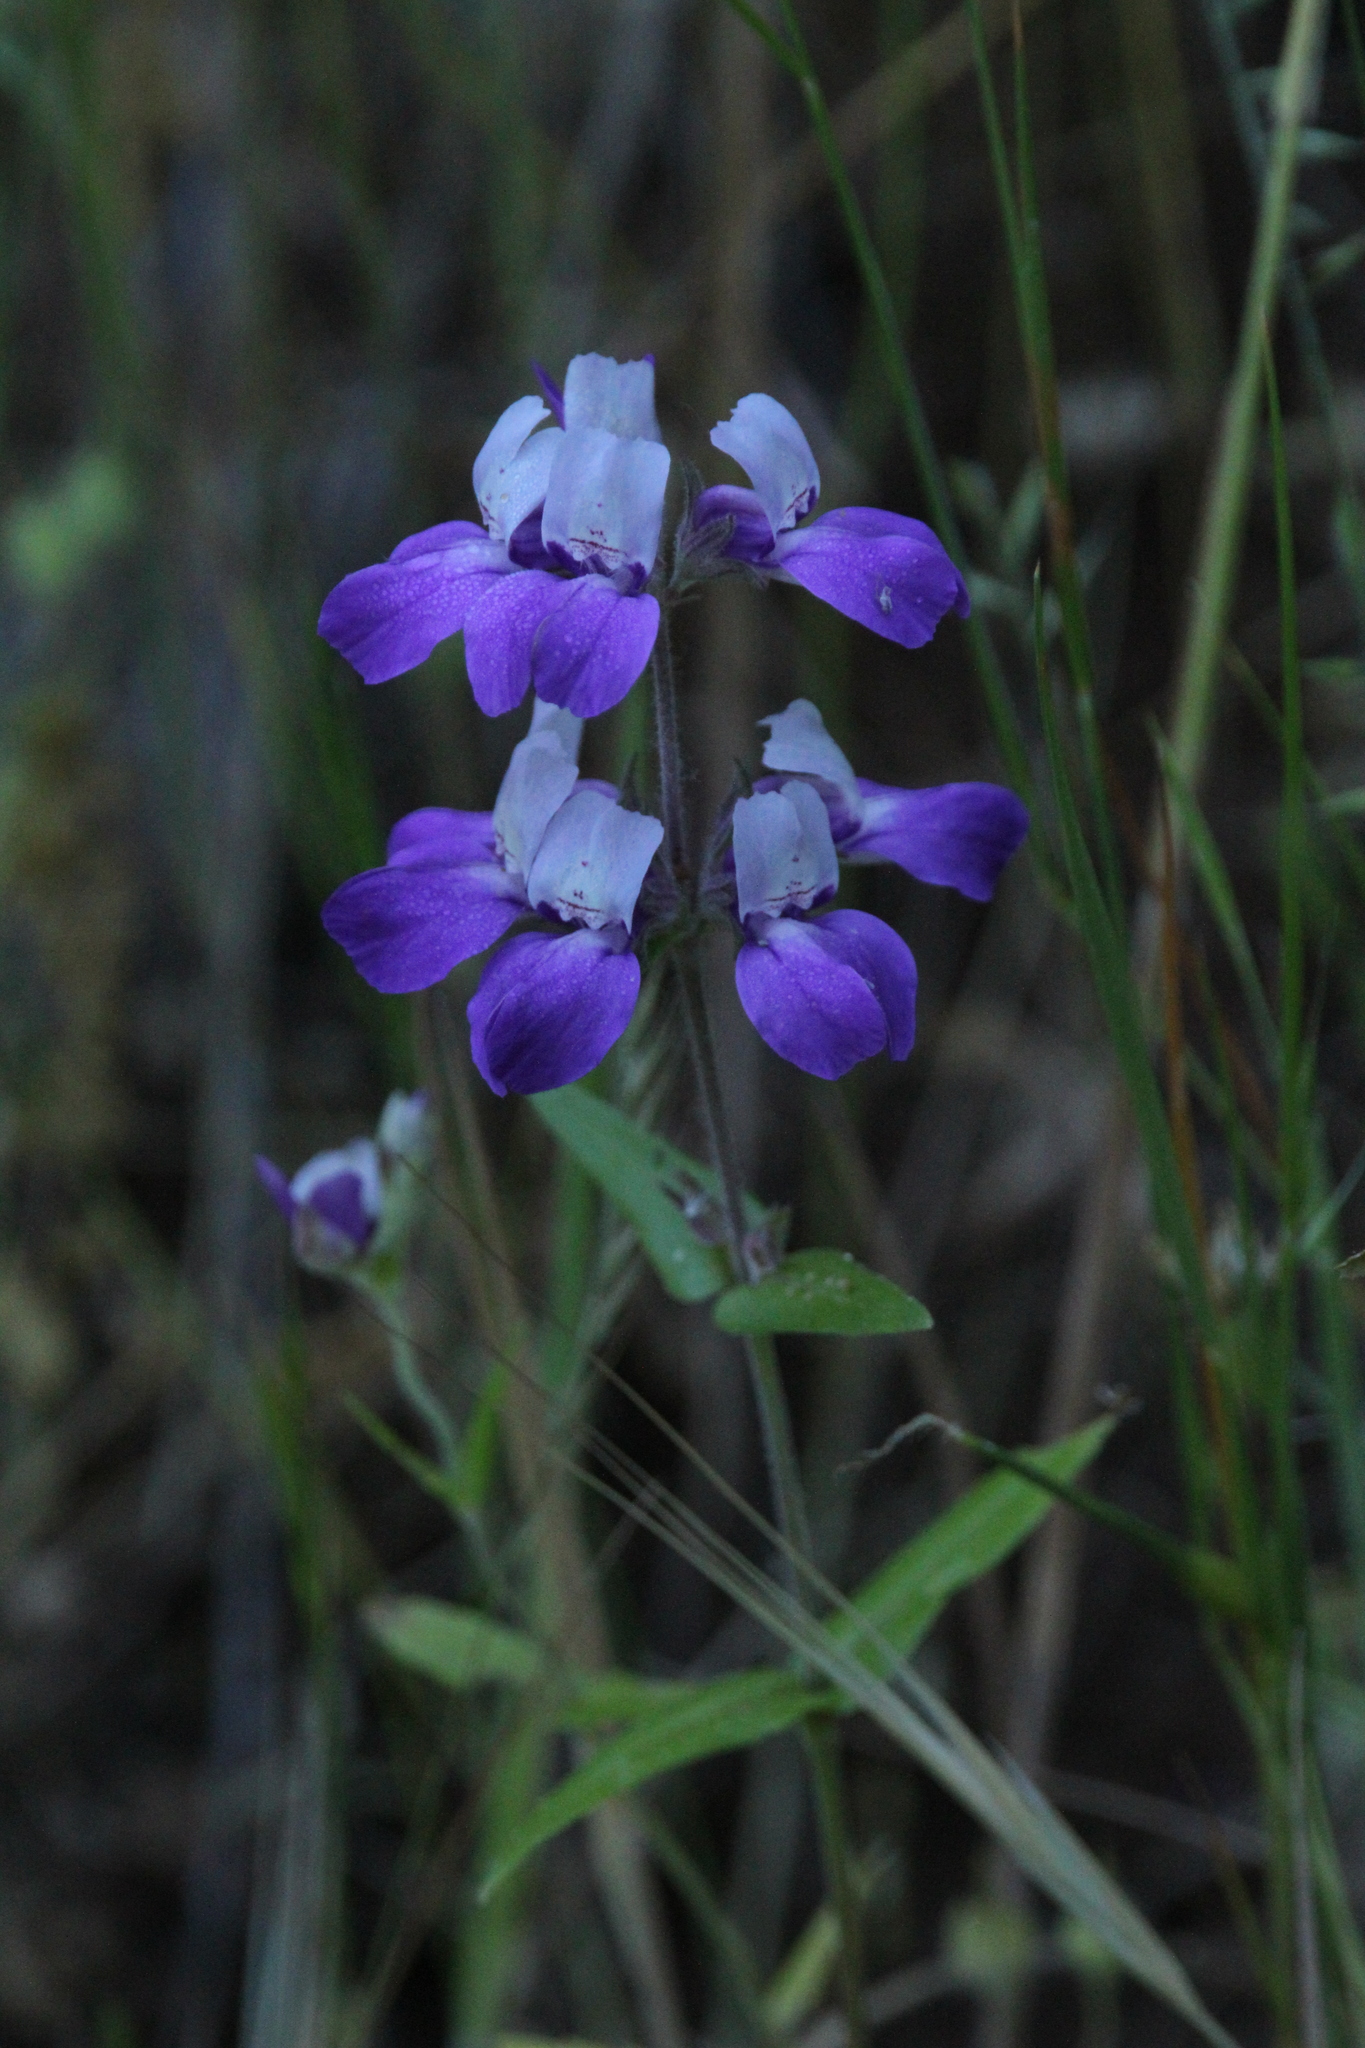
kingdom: Plantae
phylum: Tracheophyta
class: Magnoliopsida
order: Lamiales
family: Plantaginaceae
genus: Collinsia
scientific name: Collinsia heterophylla
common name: Chinese-houses
